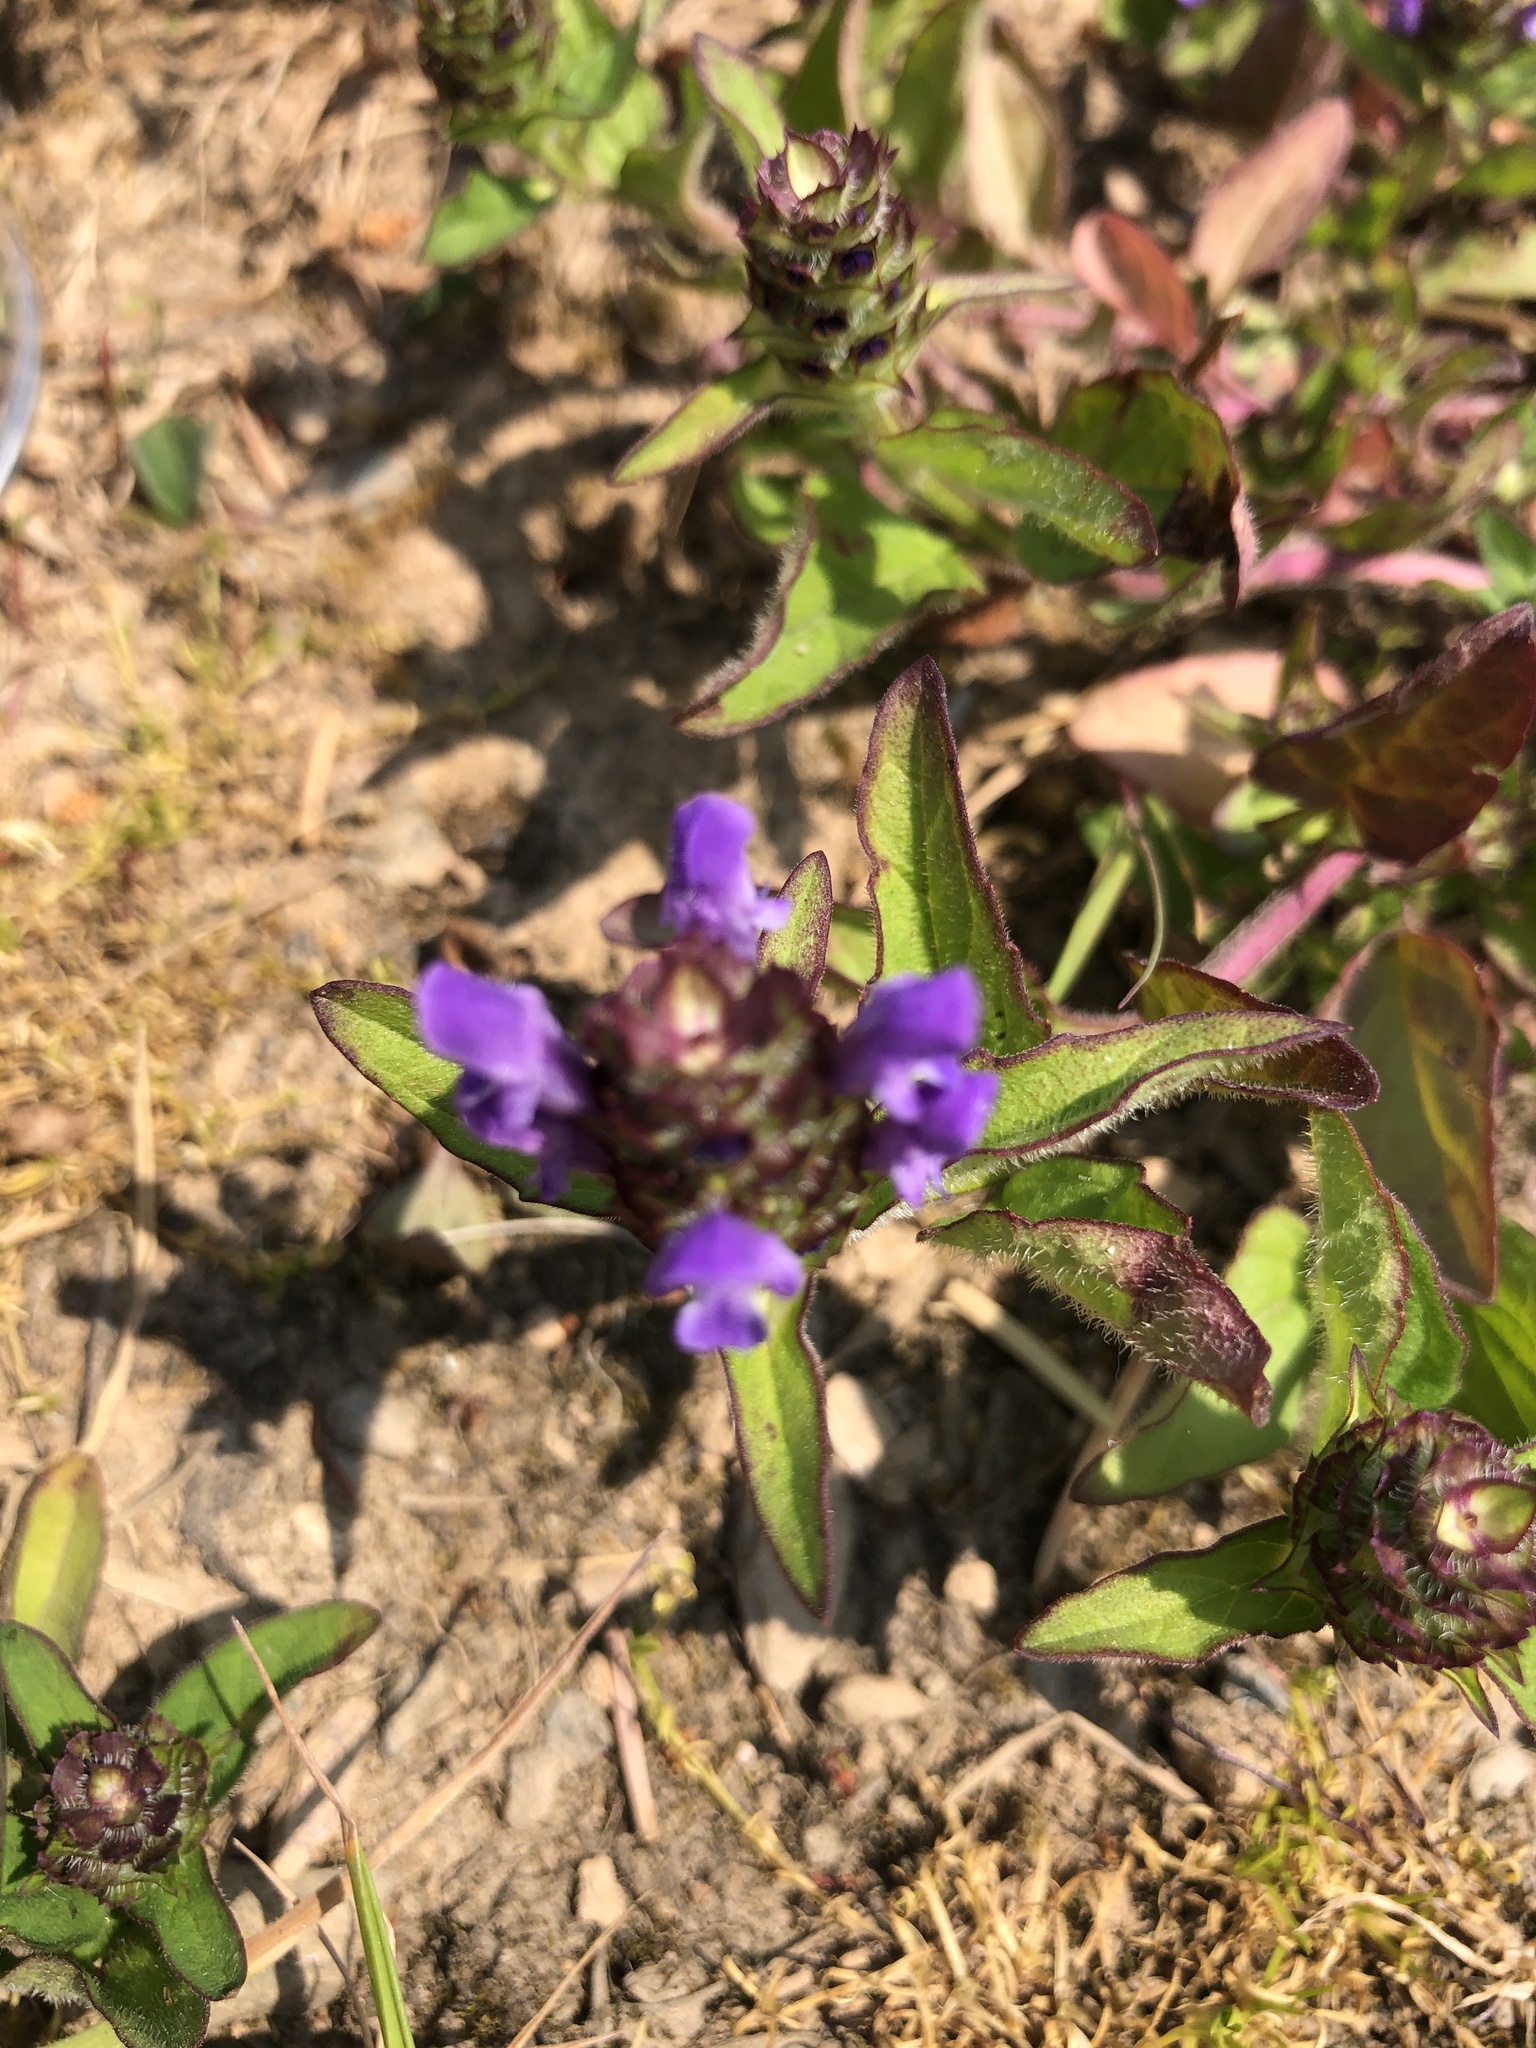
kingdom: Plantae
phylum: Tracheophyta
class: Magnoliopsida
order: Lamiales
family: Lamiaceae
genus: Prunella
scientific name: Prunella vulgaris
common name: Heal-all
